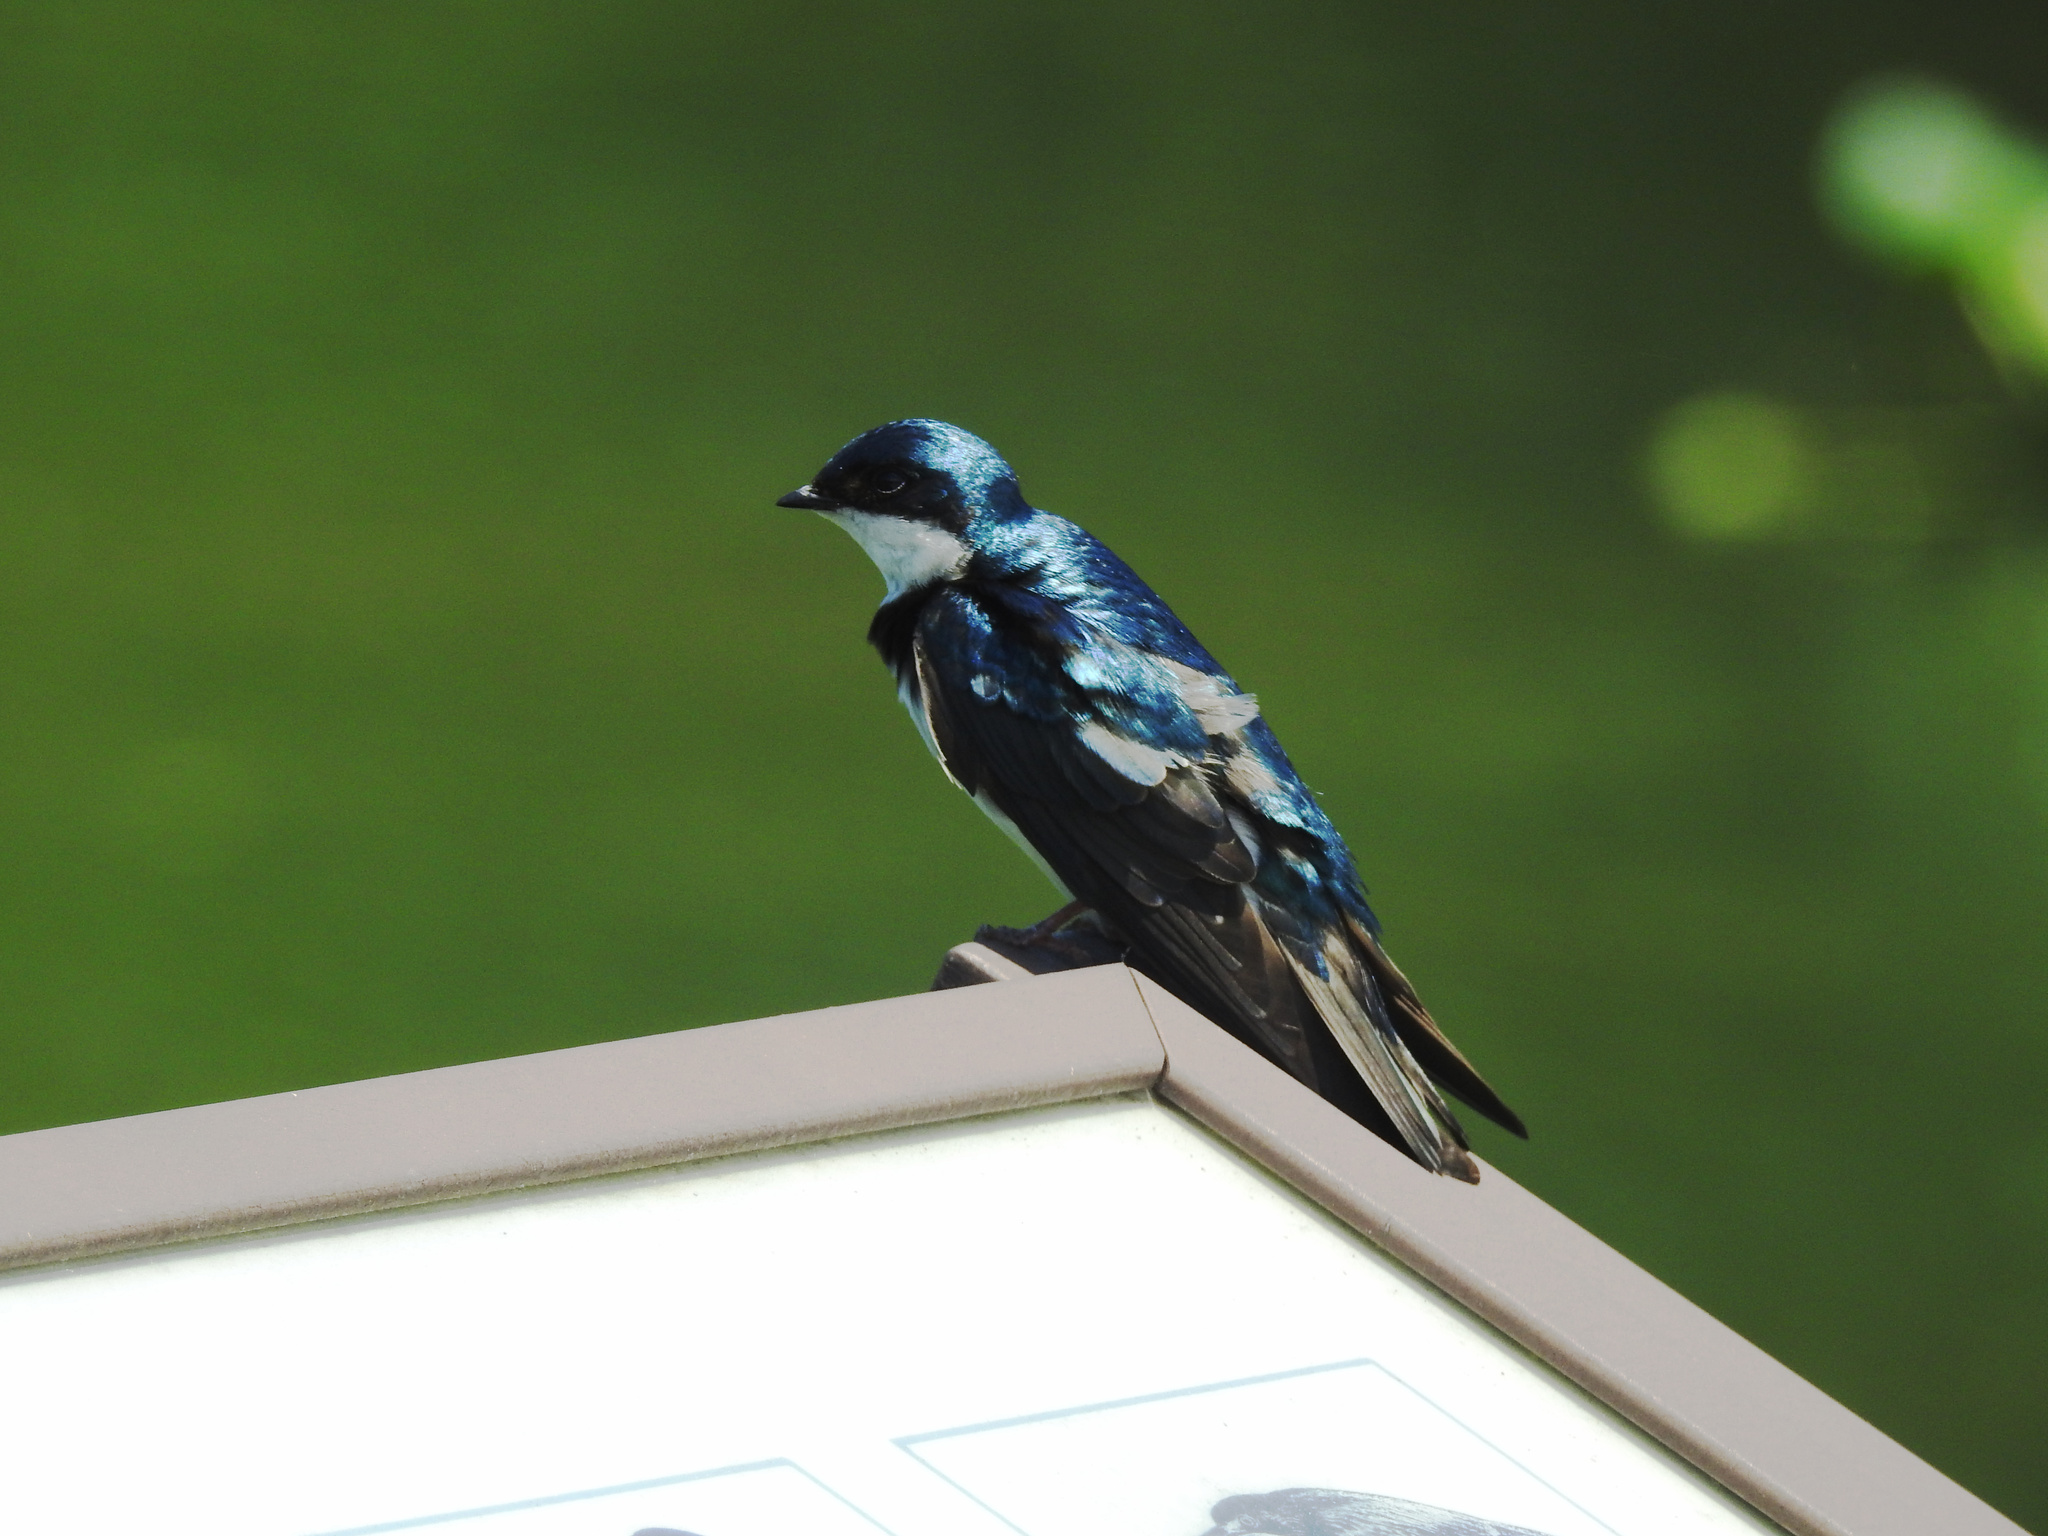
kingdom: Animalia
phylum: Chordata
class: Aves
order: Passeriformes
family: Hirundinidae
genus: Tachycineta
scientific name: Tachycineta bicolor
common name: Tree swallow
